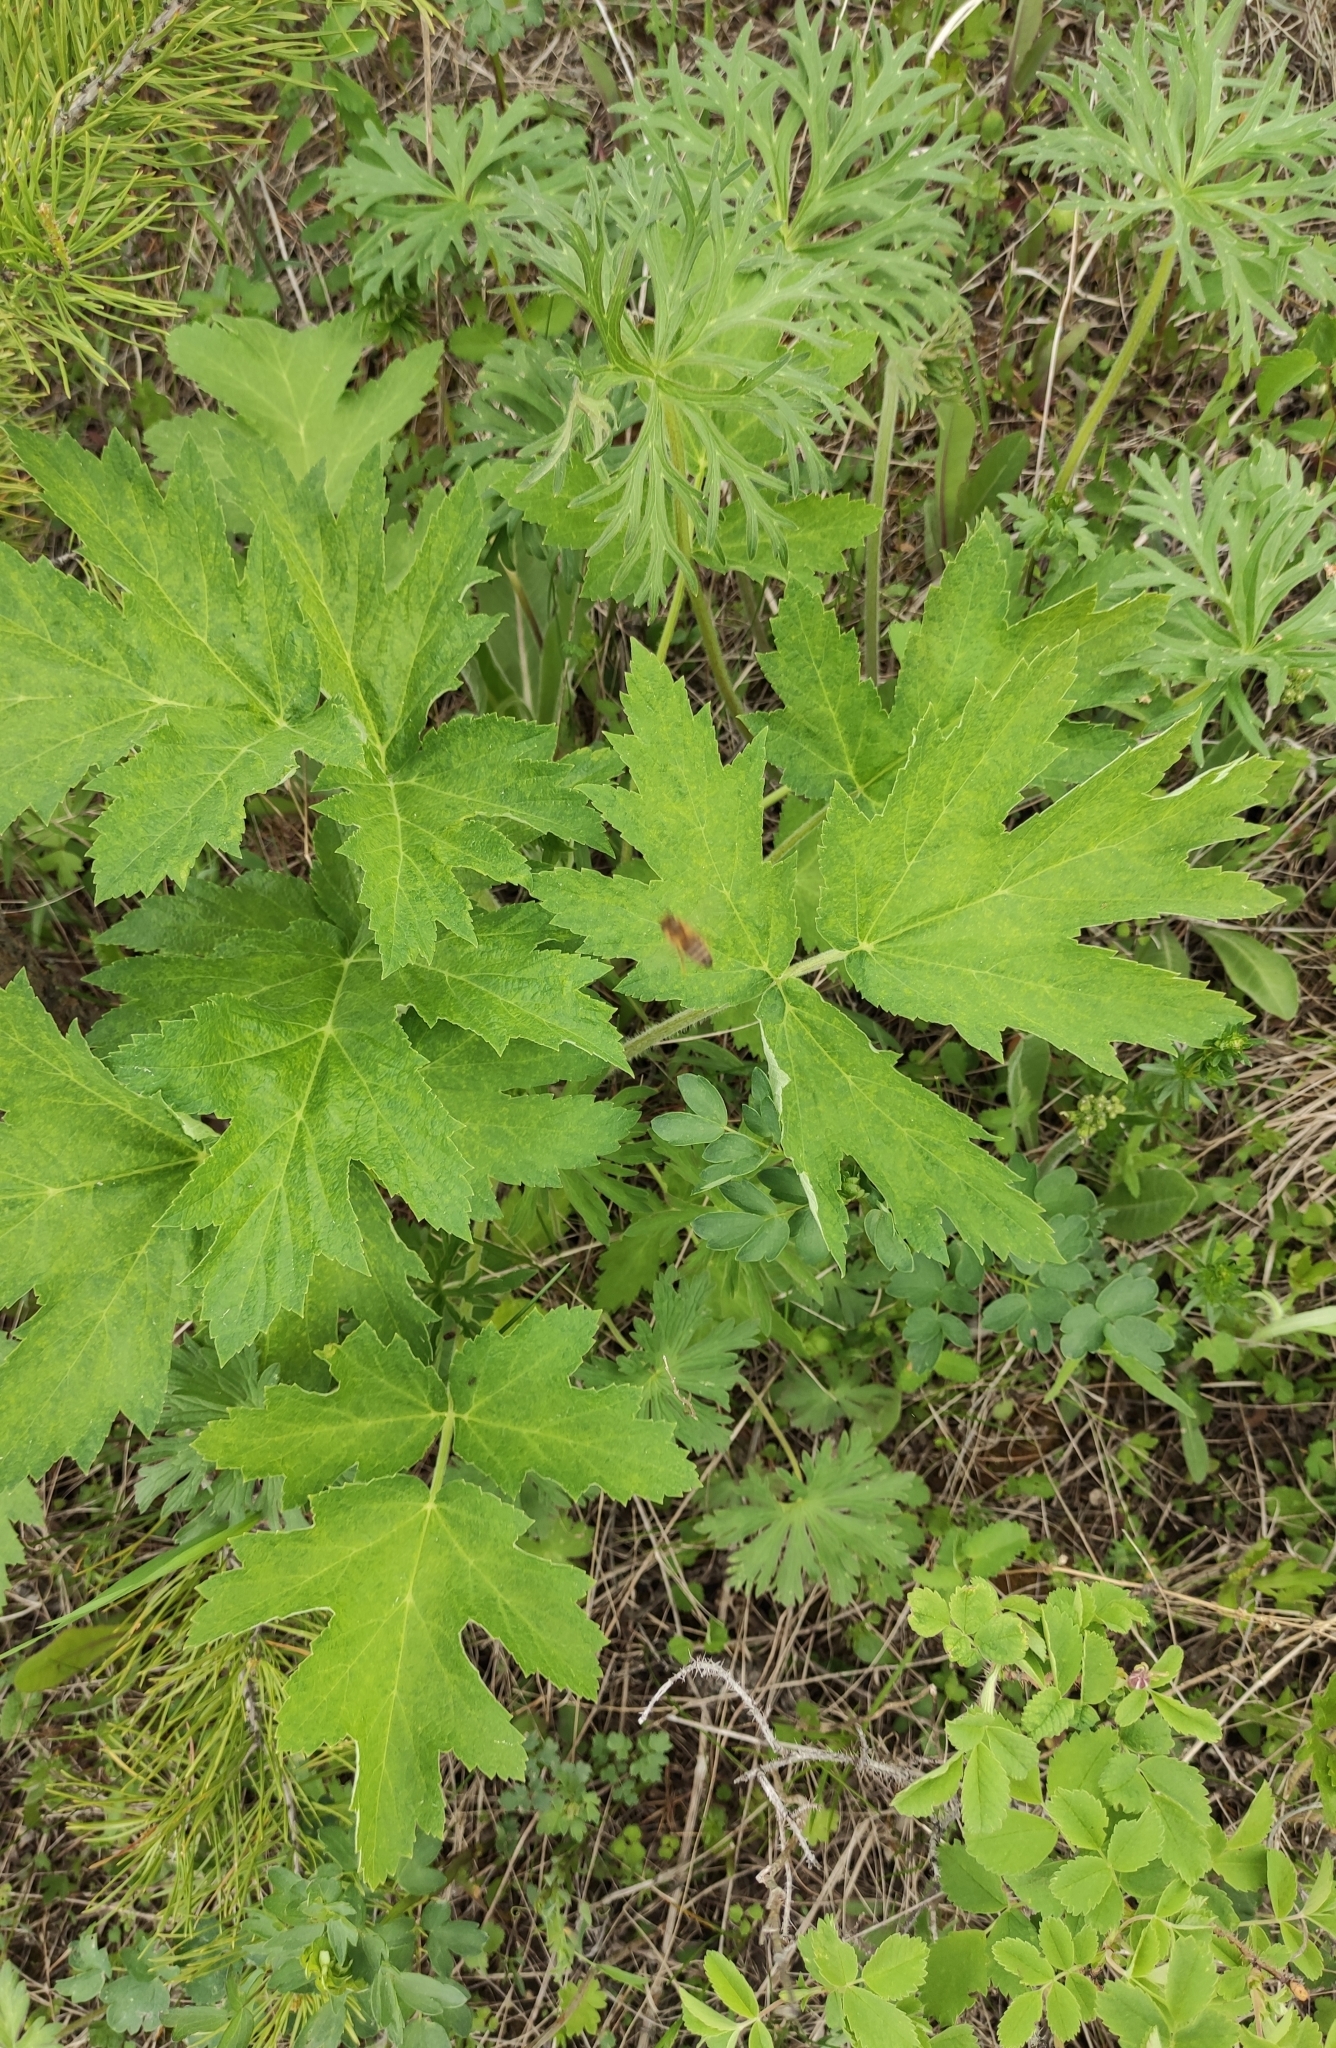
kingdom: Plantae
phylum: Tracheophyta
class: Magnoliopsida
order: Apiales
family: Apiaceae
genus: Heracleum
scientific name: Heracleum dissectum
